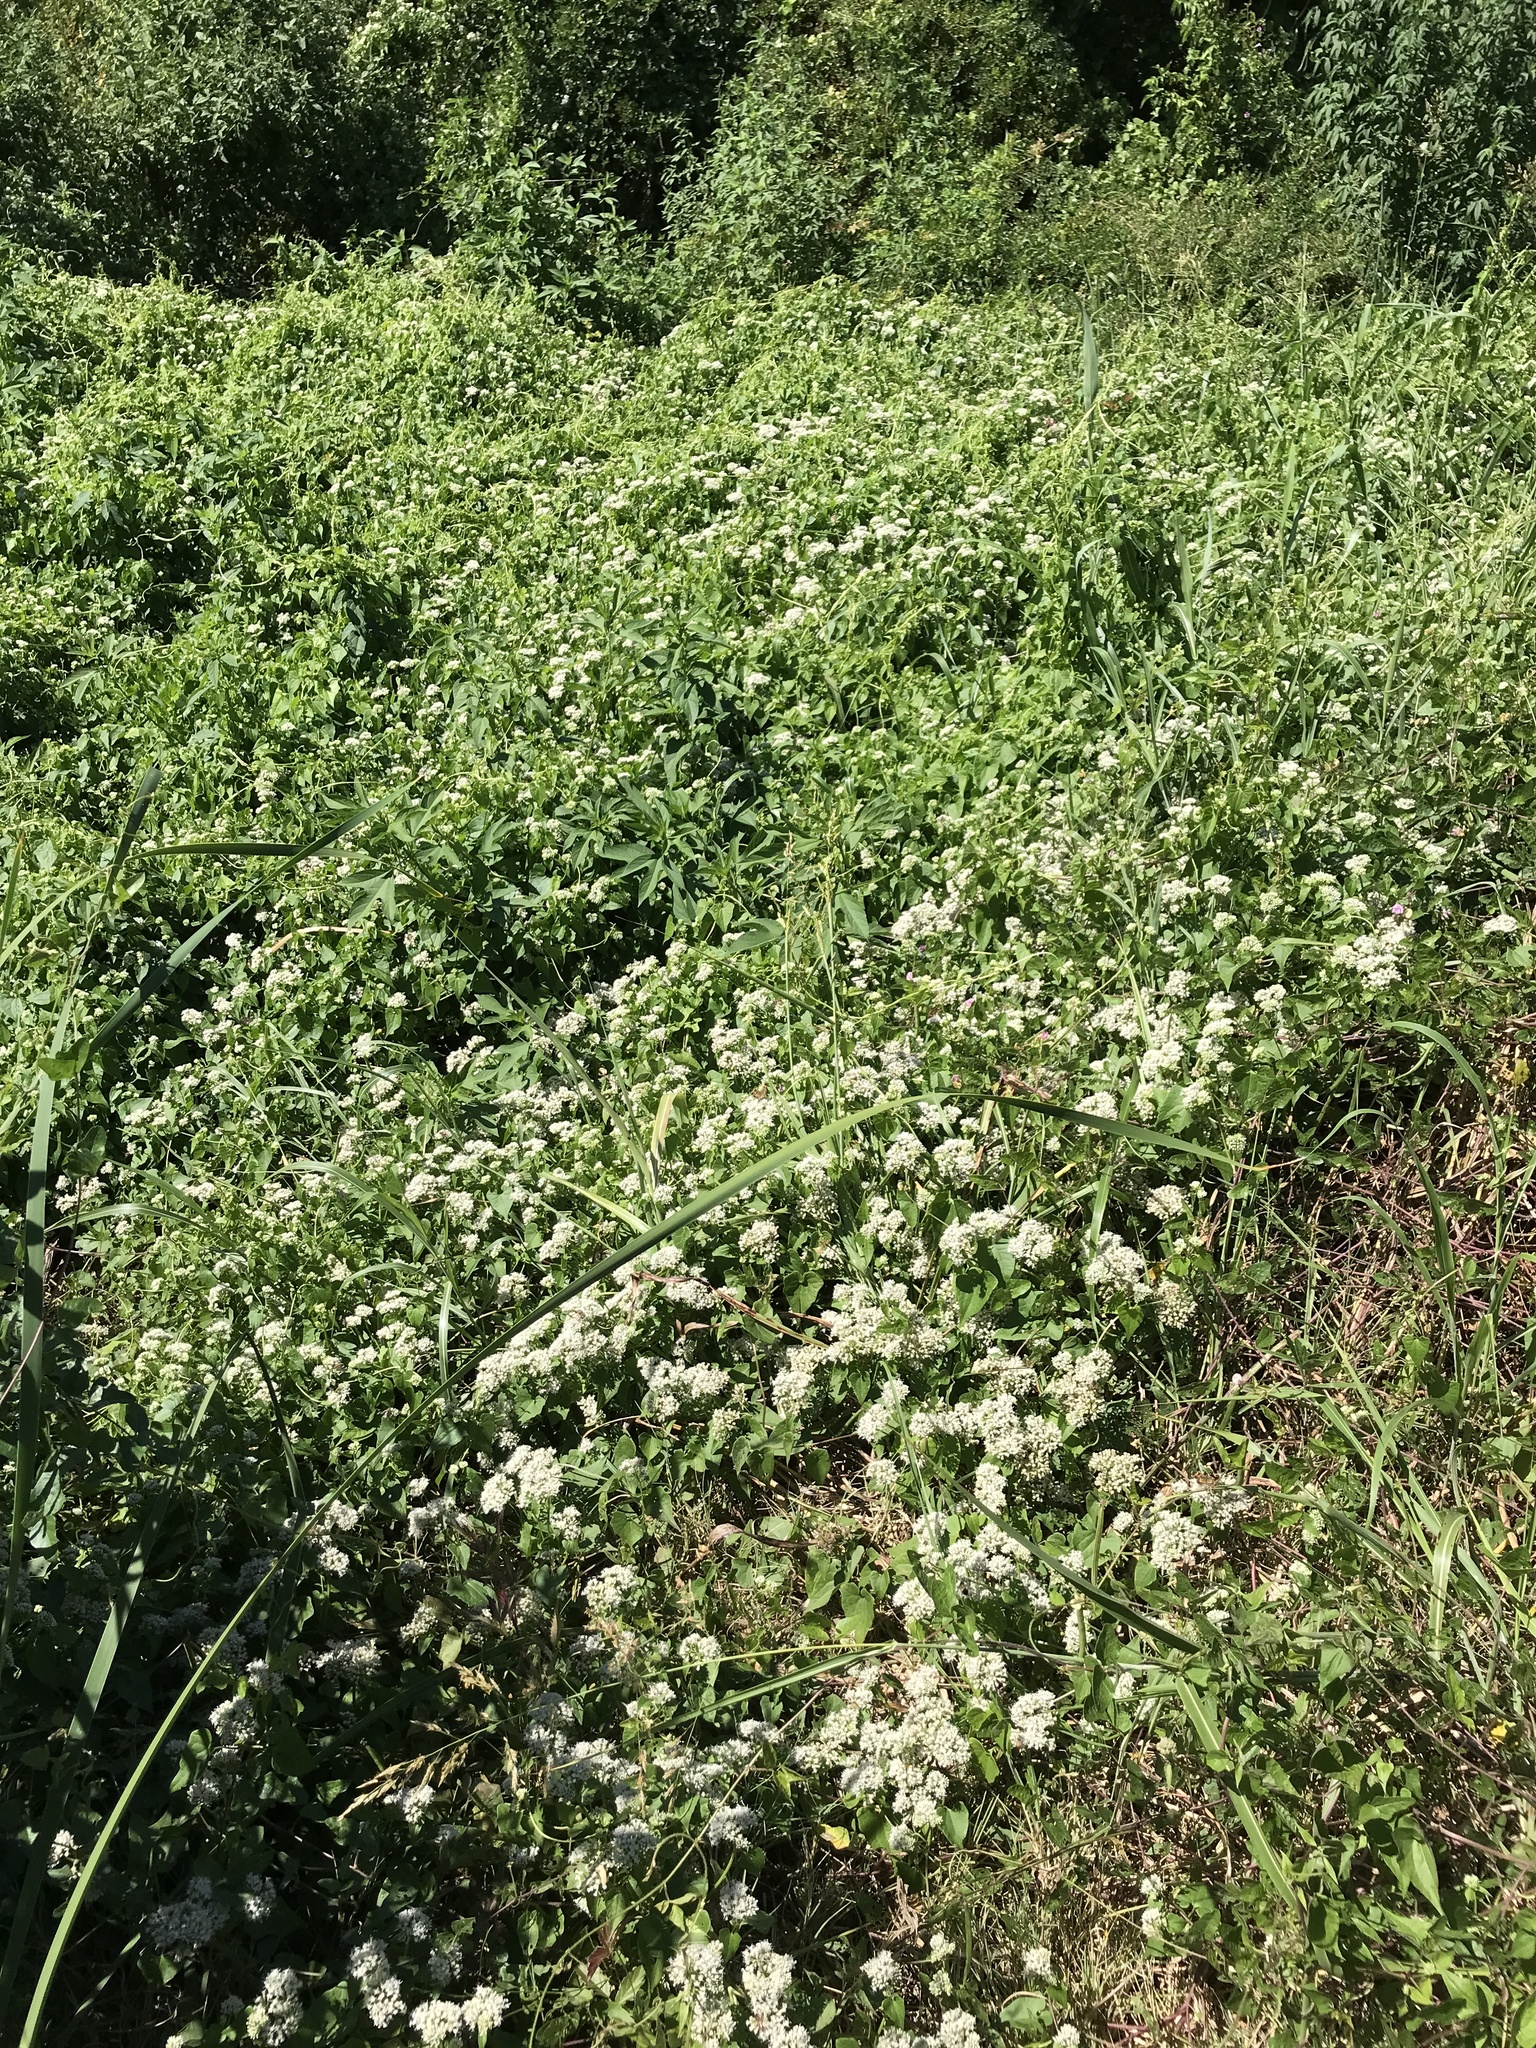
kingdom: Plantae
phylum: Tracheophyta
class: Magnoliopsida
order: Asterales
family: Asteraceae
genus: Mikania
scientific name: Mikania scandens
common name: Climbing hempvine
